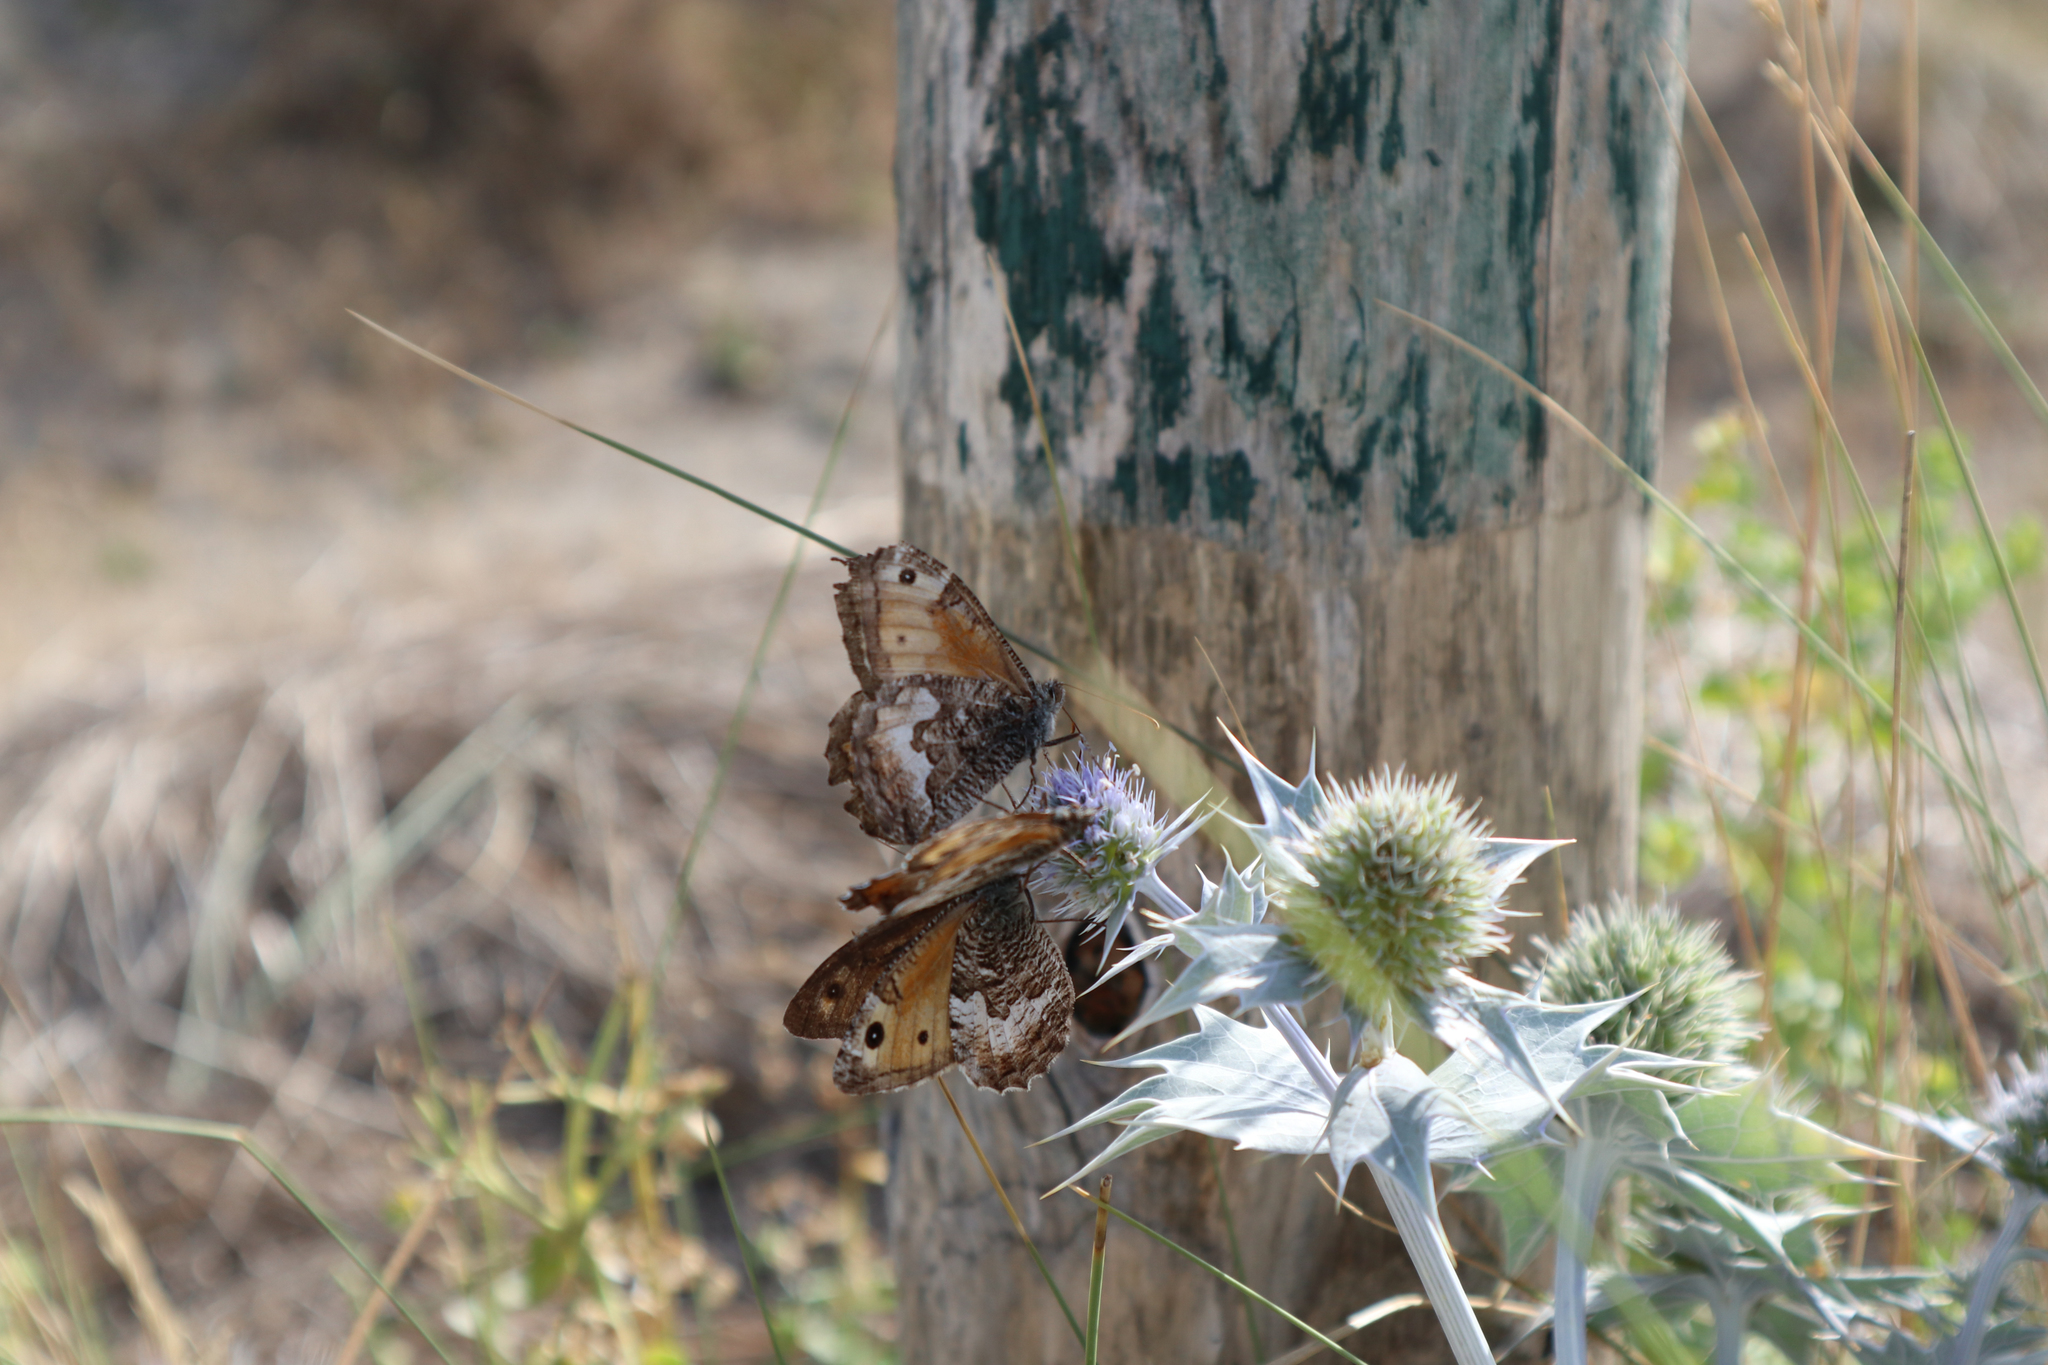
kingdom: Animalia
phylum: Arthropoda
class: Insecta
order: Lepidoptera
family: Nymphalidae
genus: Hipparchia
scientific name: Hipparchia semele
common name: Grayling
